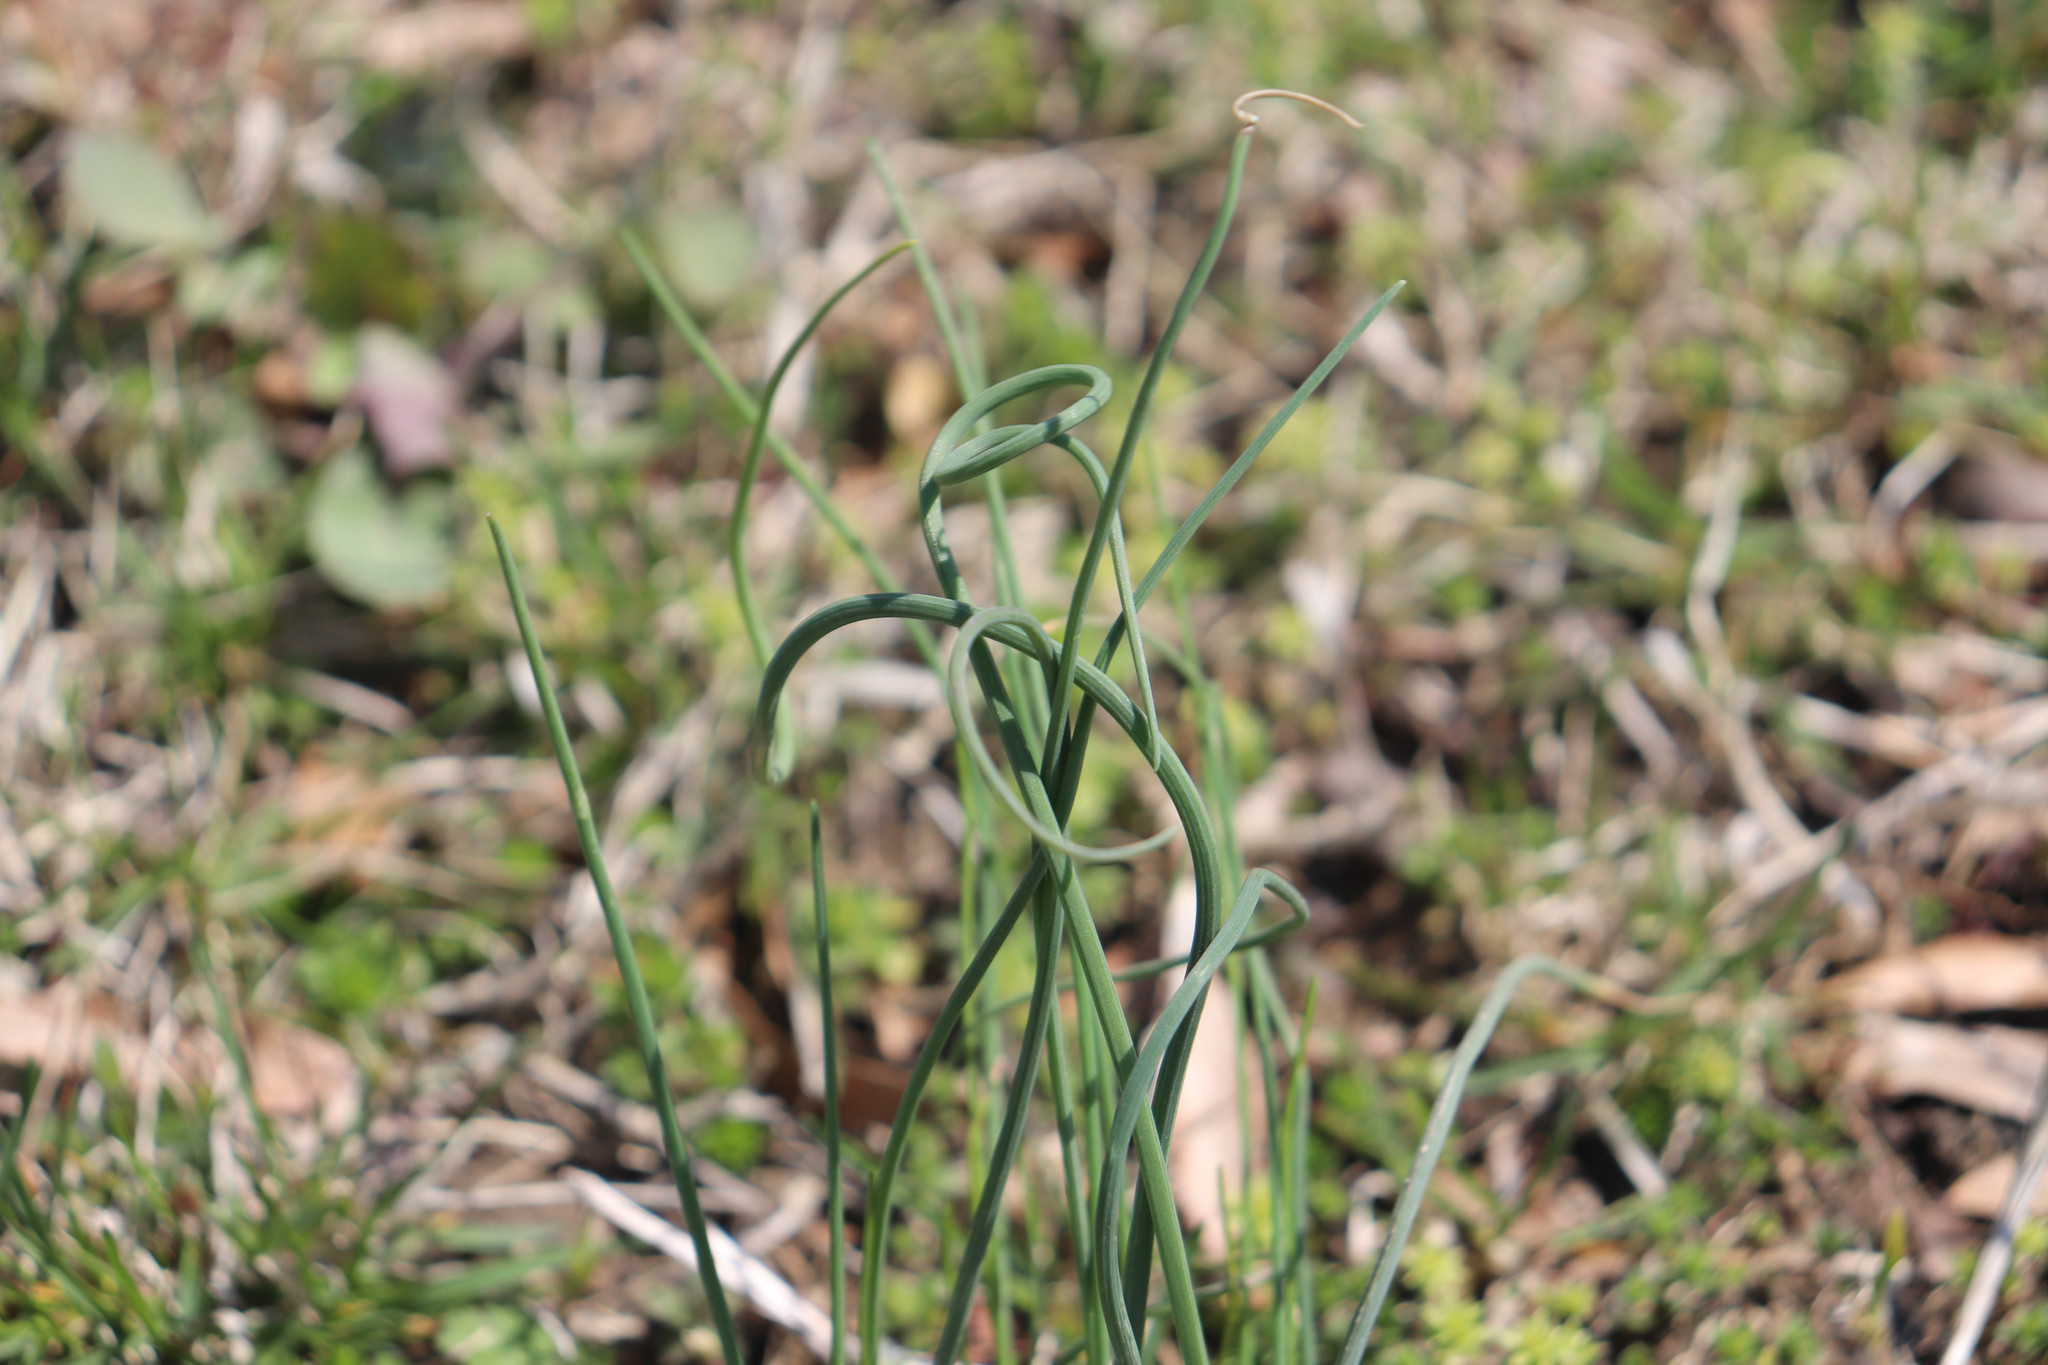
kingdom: Plantae
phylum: Tracheophyta
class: Liliopsida
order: Asparagales
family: Amaryllidaceae
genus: Allium
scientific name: Allium vineale
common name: Crow garlic
